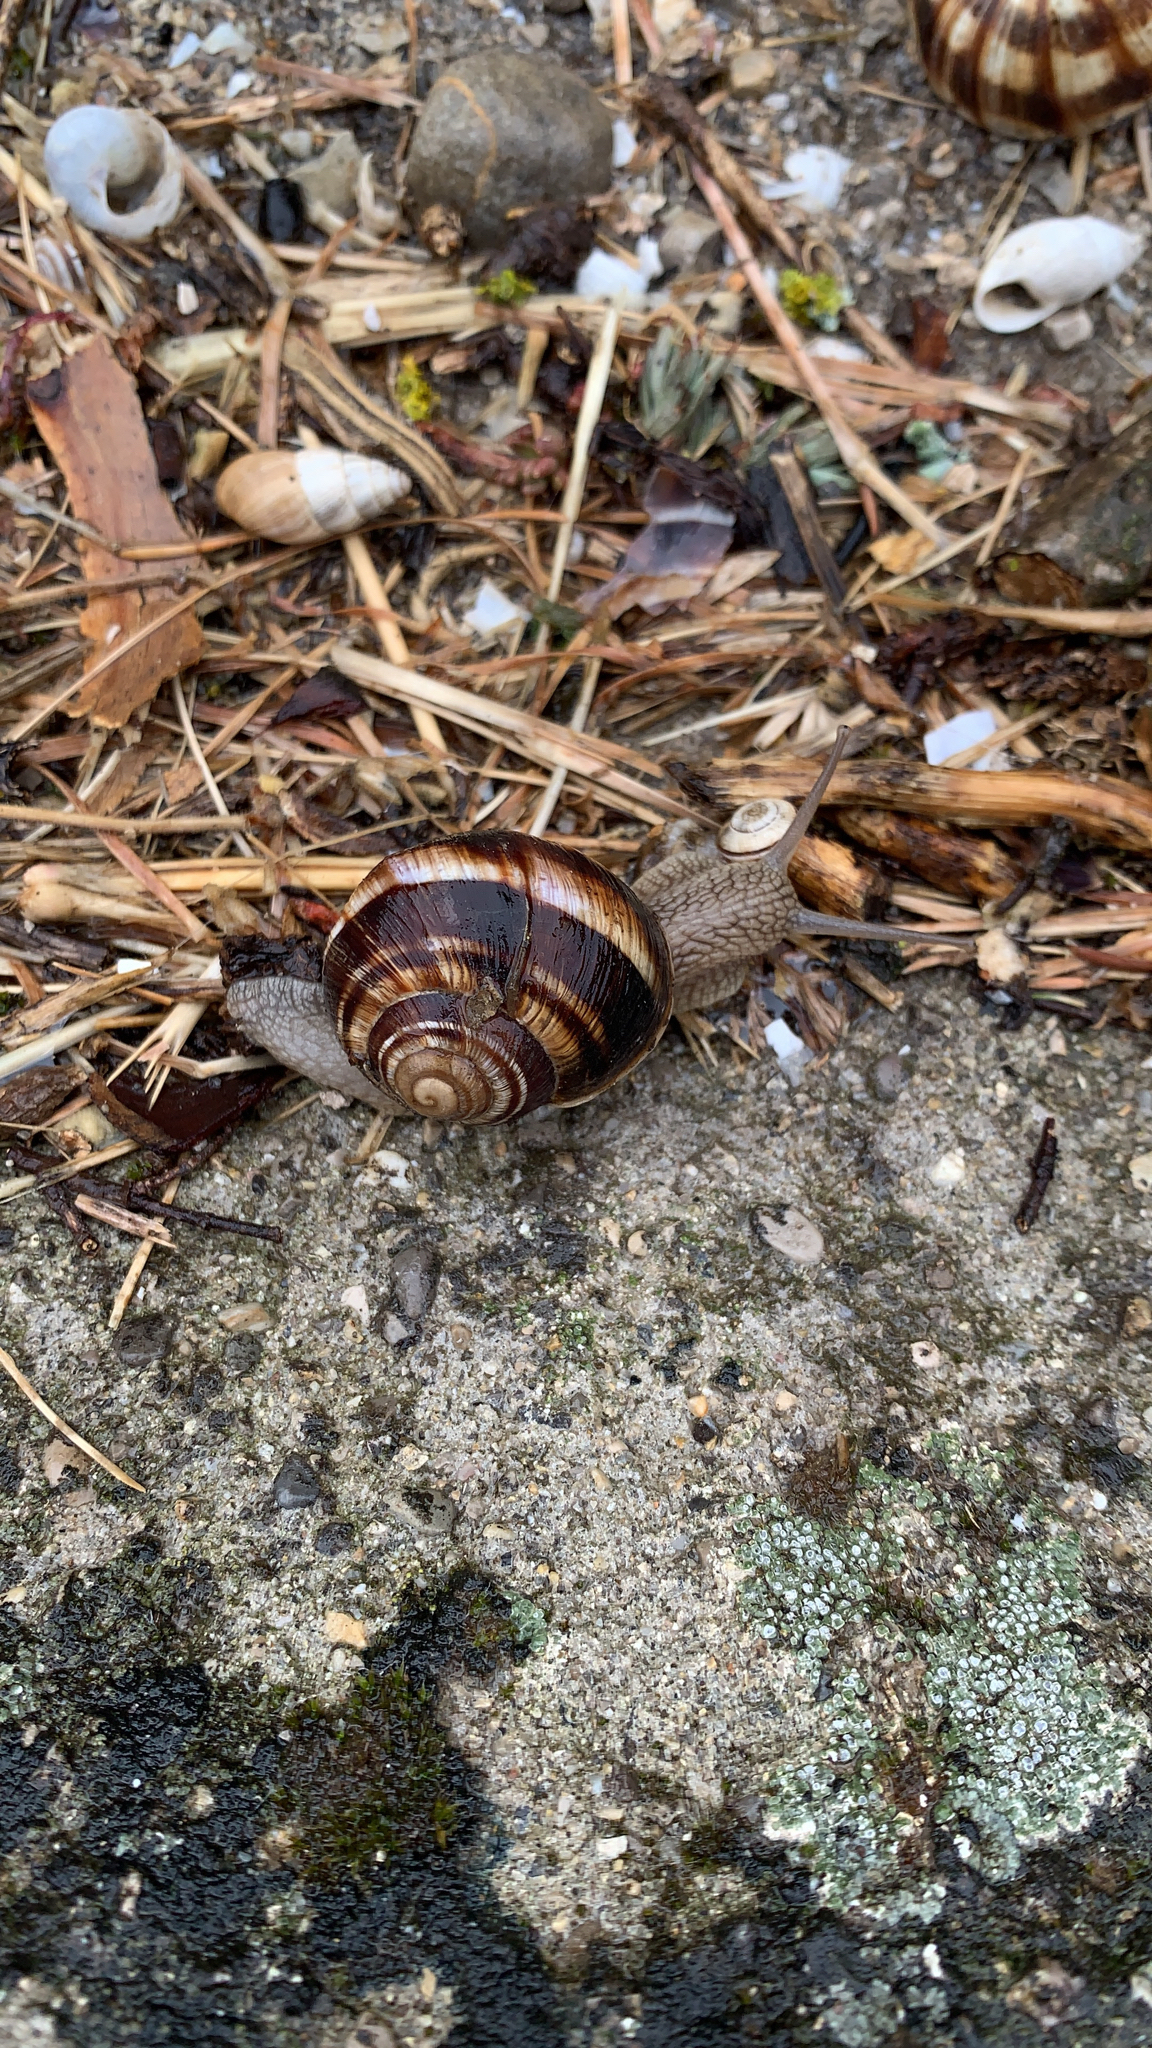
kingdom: Animalia
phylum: Mollusca
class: Gastropoda
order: Stylommatophora
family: Helicidae
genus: Helix
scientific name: Helix lucorum
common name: Turkish snail
